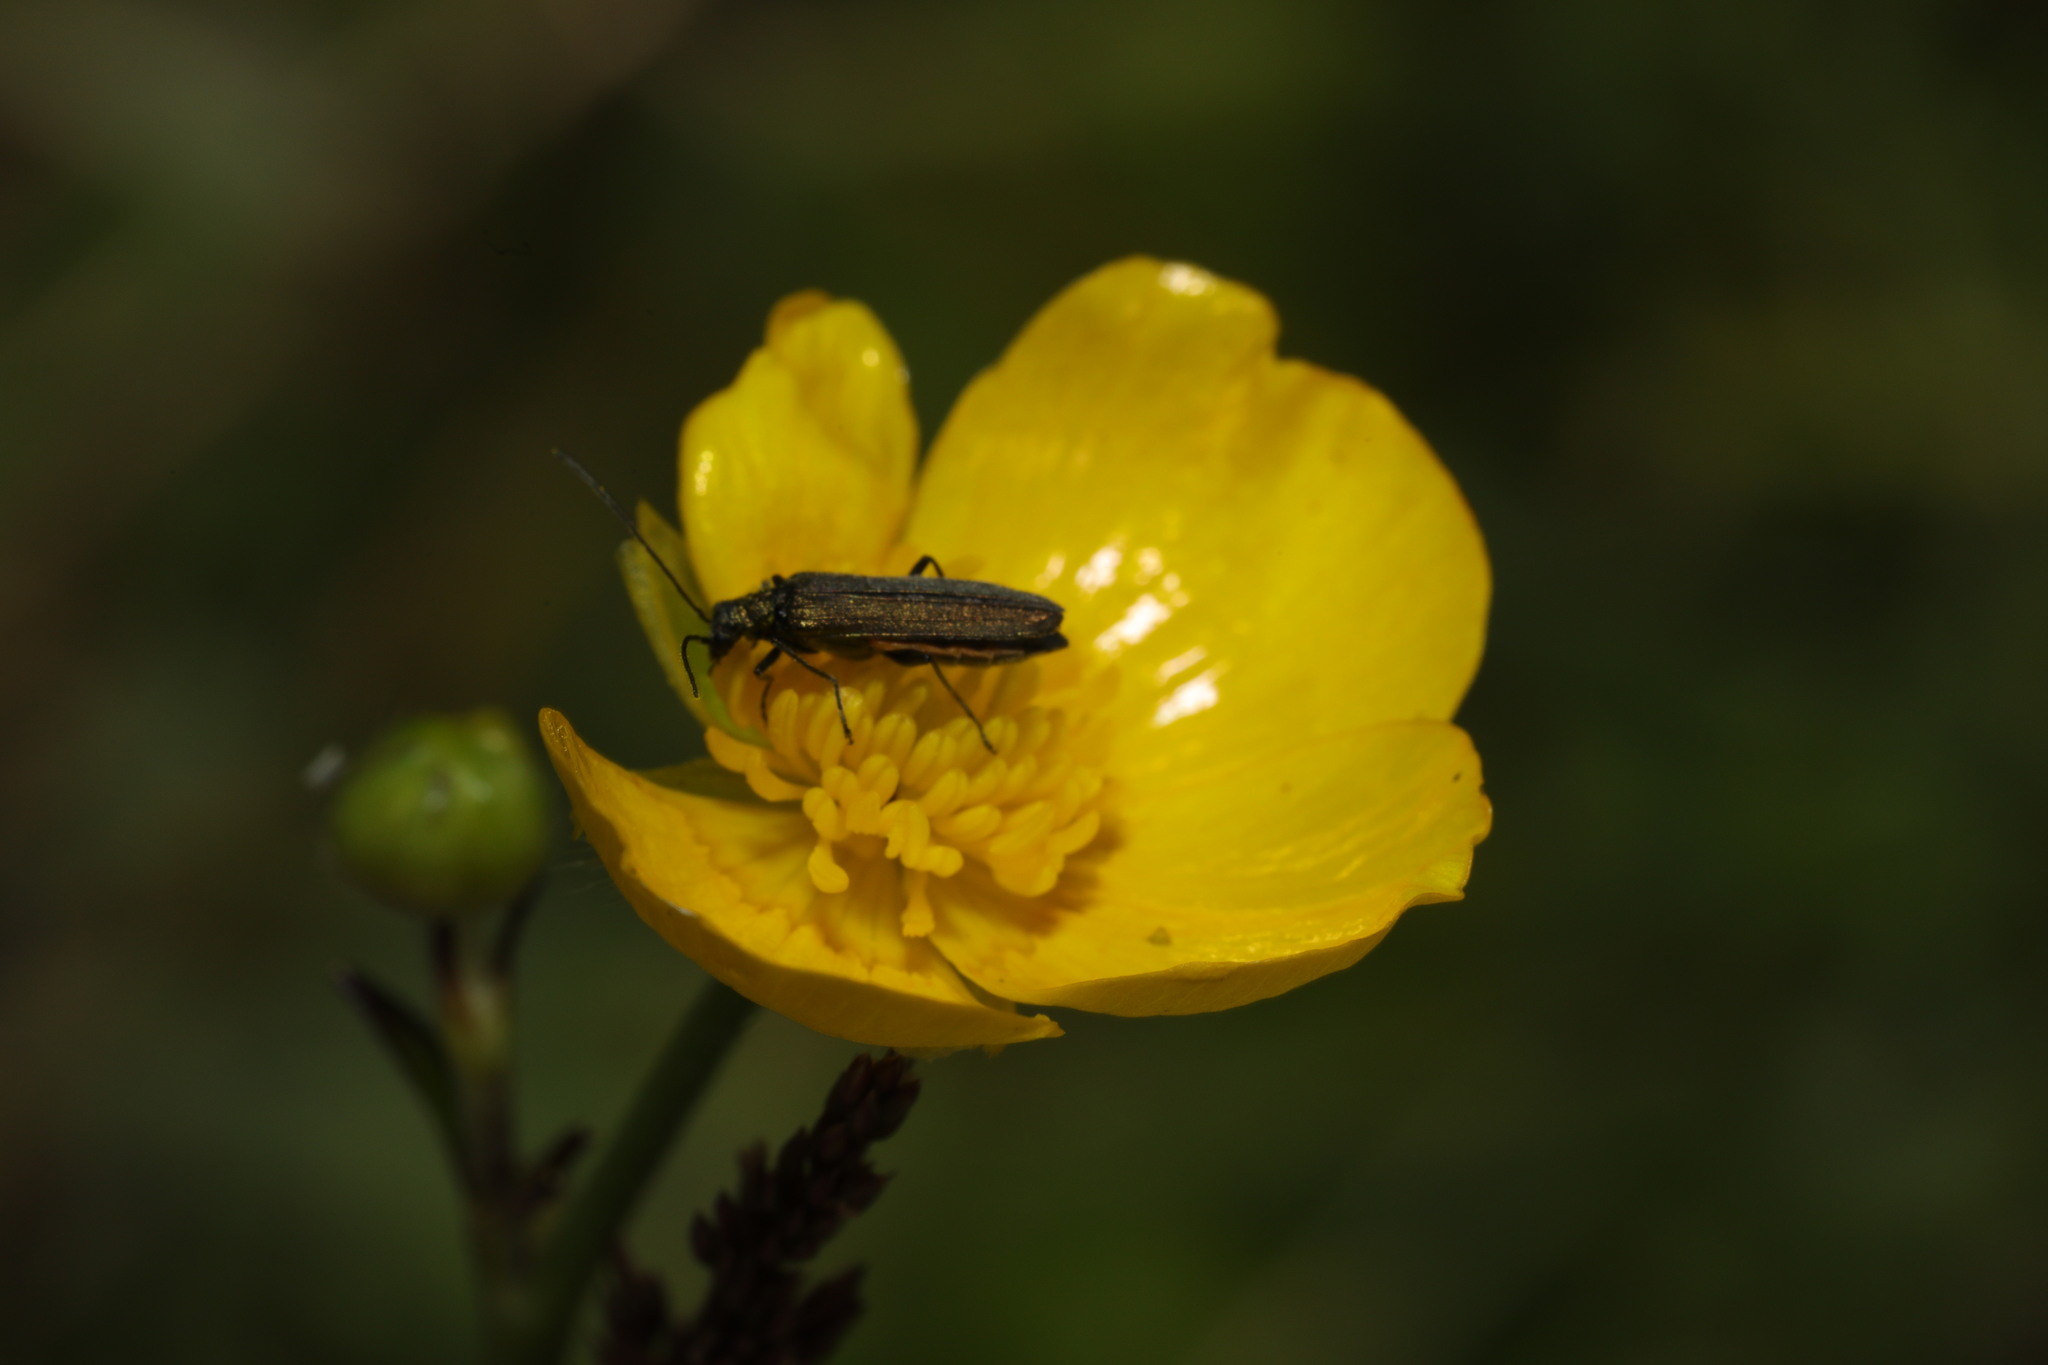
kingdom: Animalia
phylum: Arthropoda
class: Insecta
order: Coleoptera
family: Oedemeridae
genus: Oedemera
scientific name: Oedemera lurida
